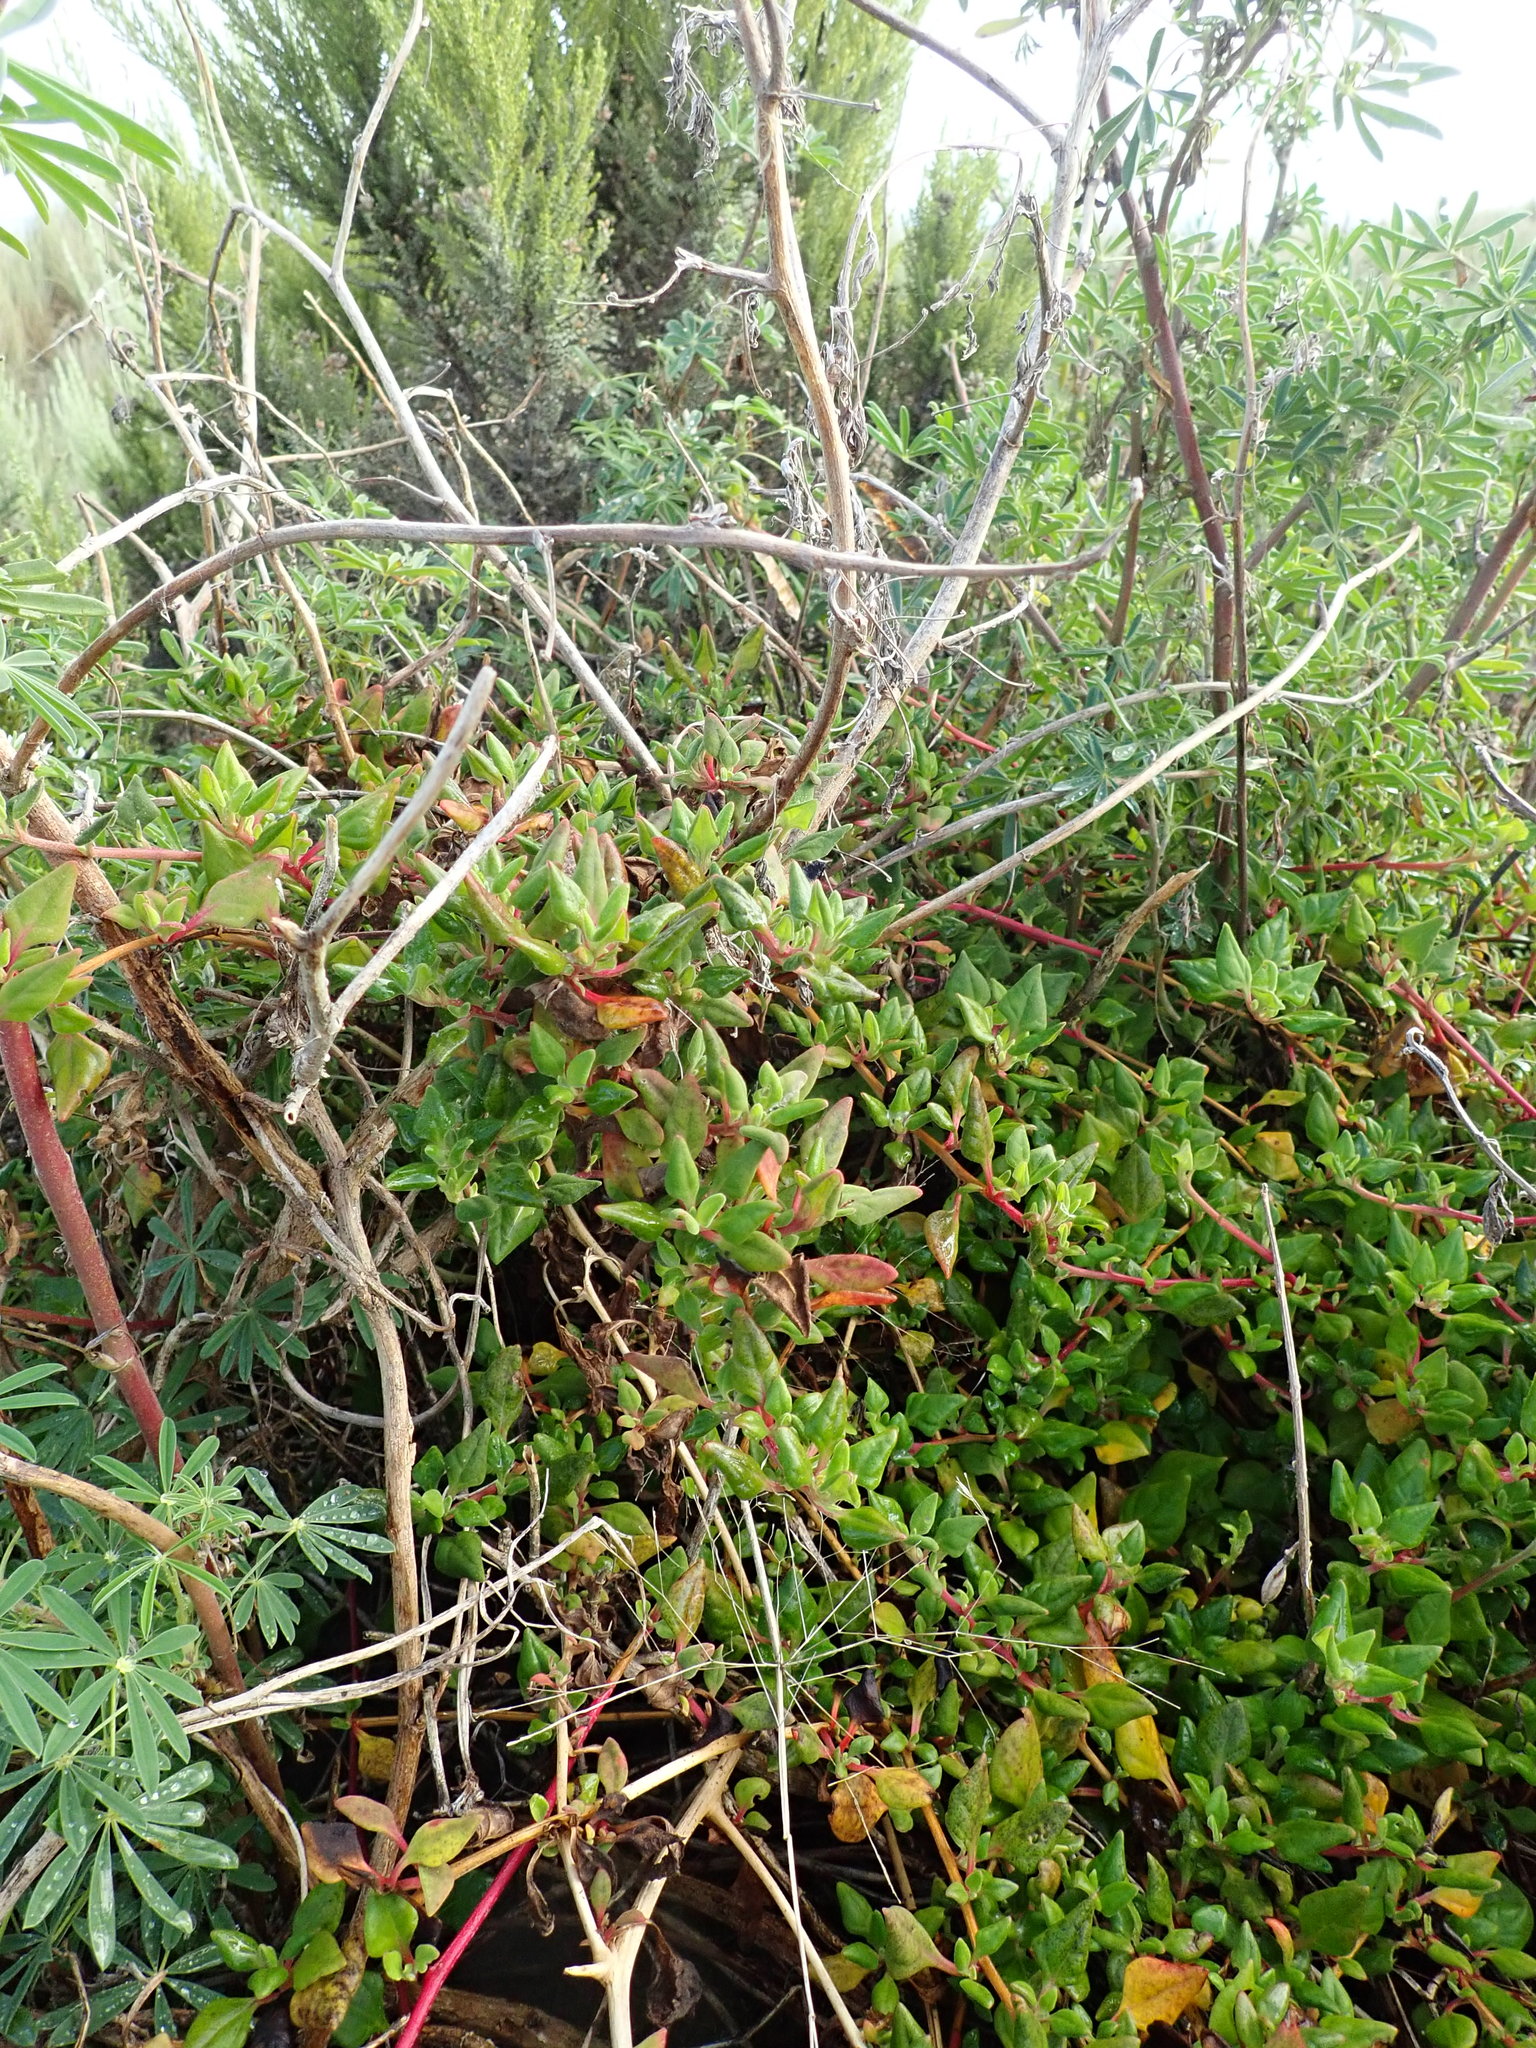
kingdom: Plantae
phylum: Tracheophyta
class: Magnoliopsida
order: Caryophyllales
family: Aizoaceae
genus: Tetragonia
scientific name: Tetragonia implexicoma
